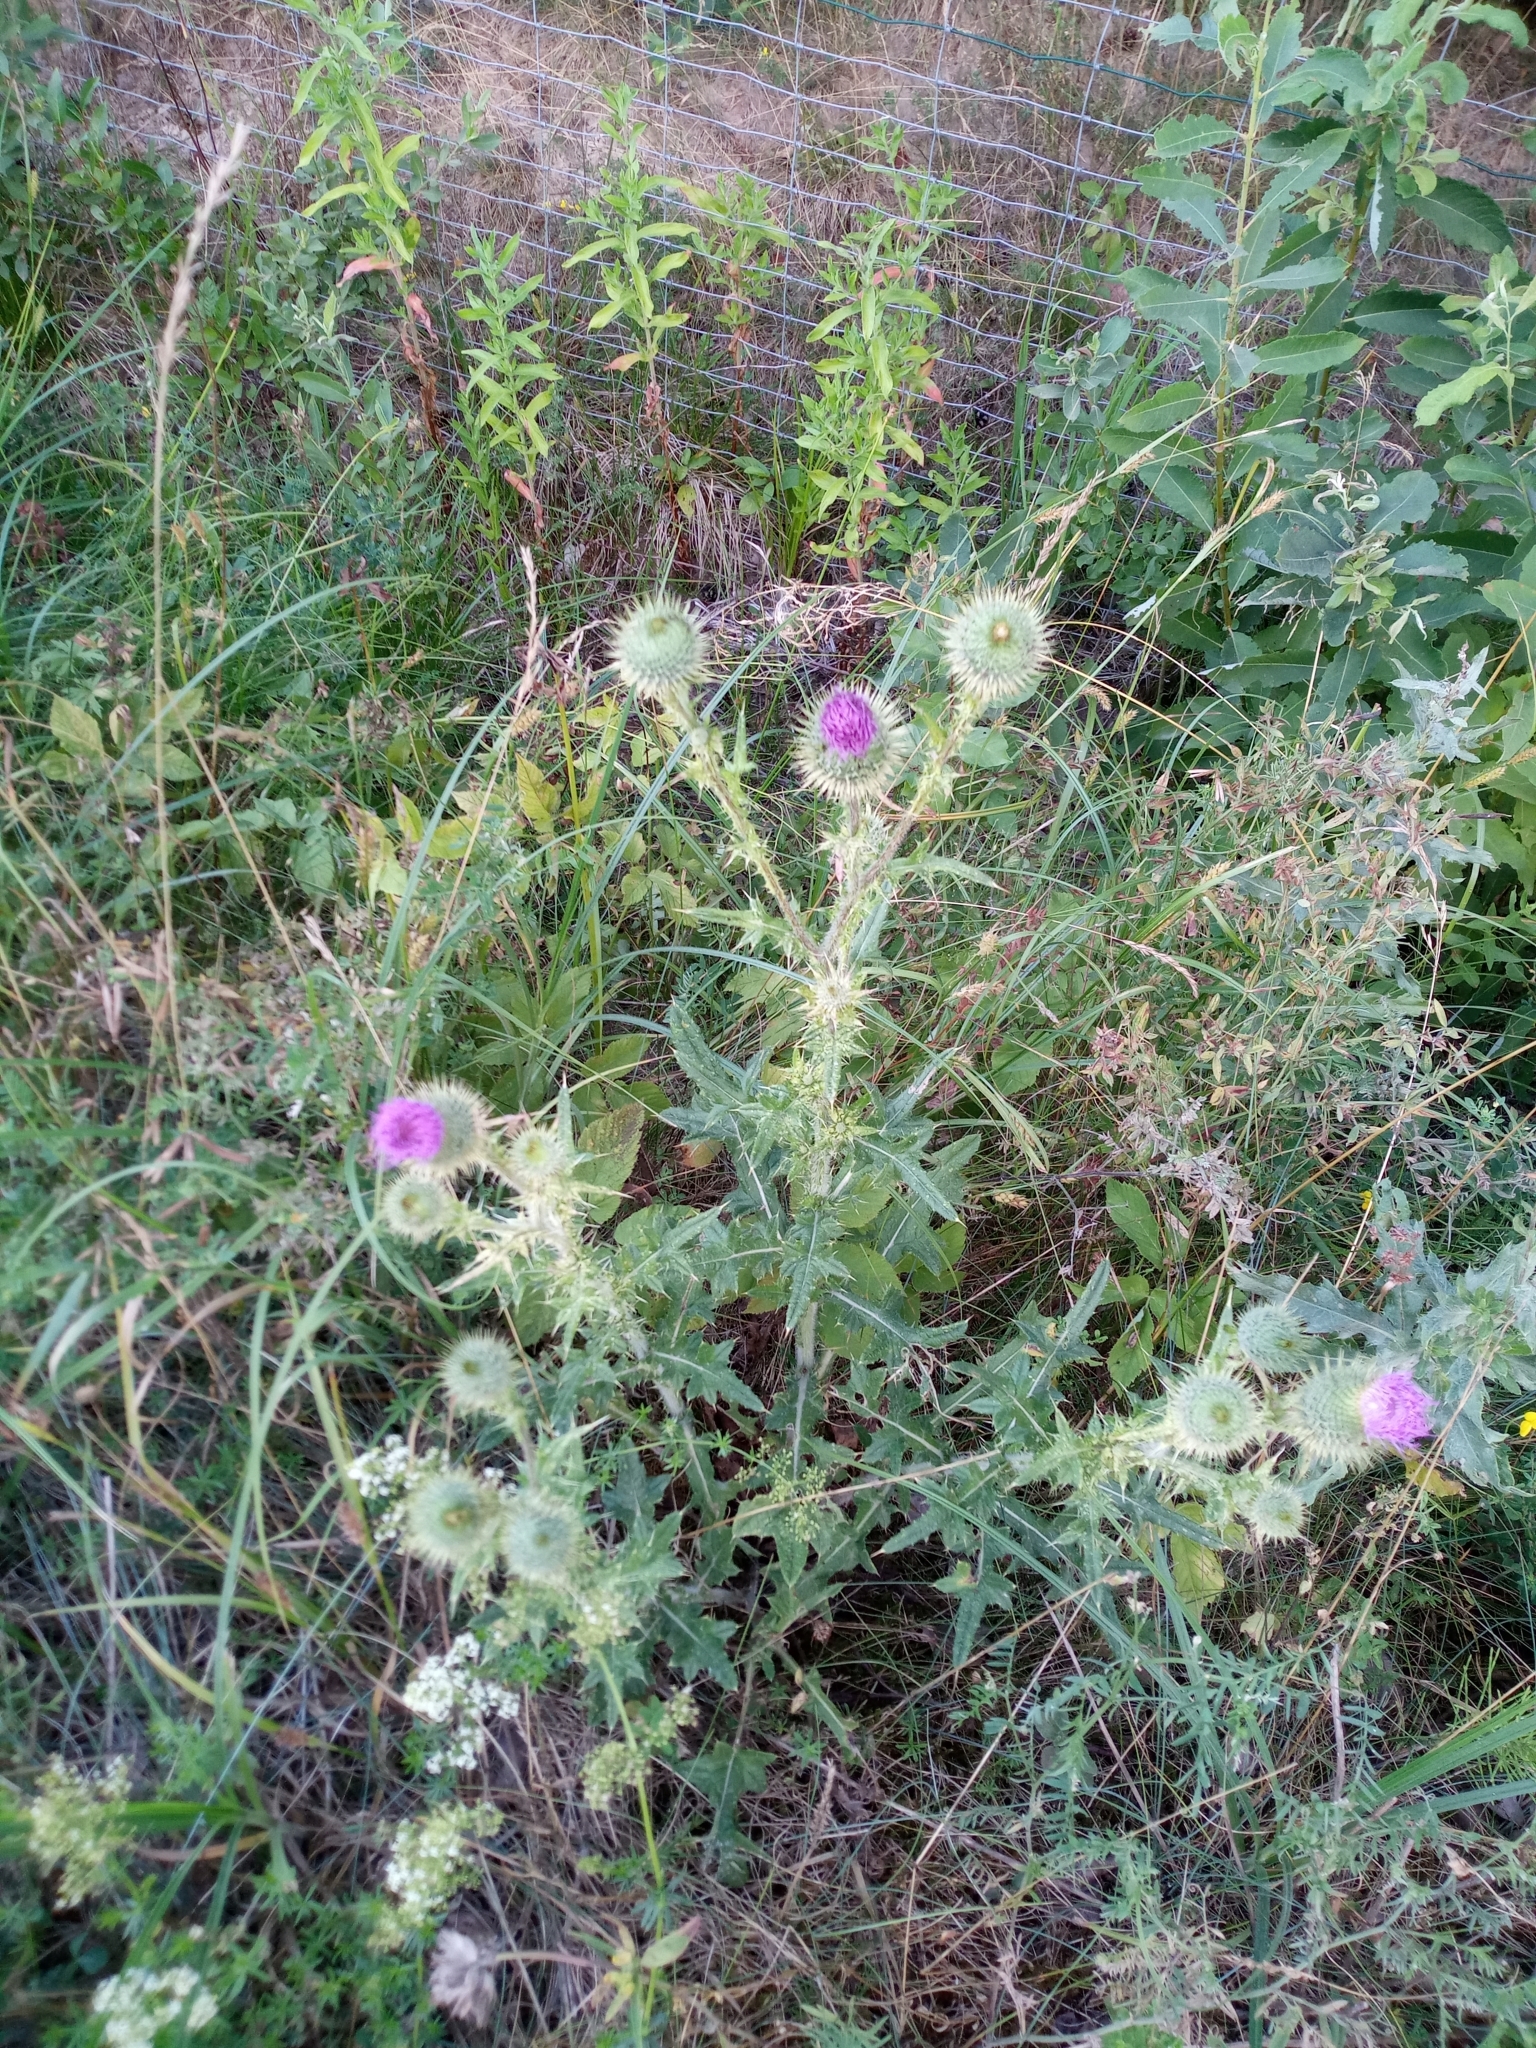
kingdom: Plantae
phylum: Tracheophyta
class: Magnoliopsida
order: Asterales
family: Asteraceae
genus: Cirsium
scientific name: Cirsium vulgare
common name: Bull thistle
